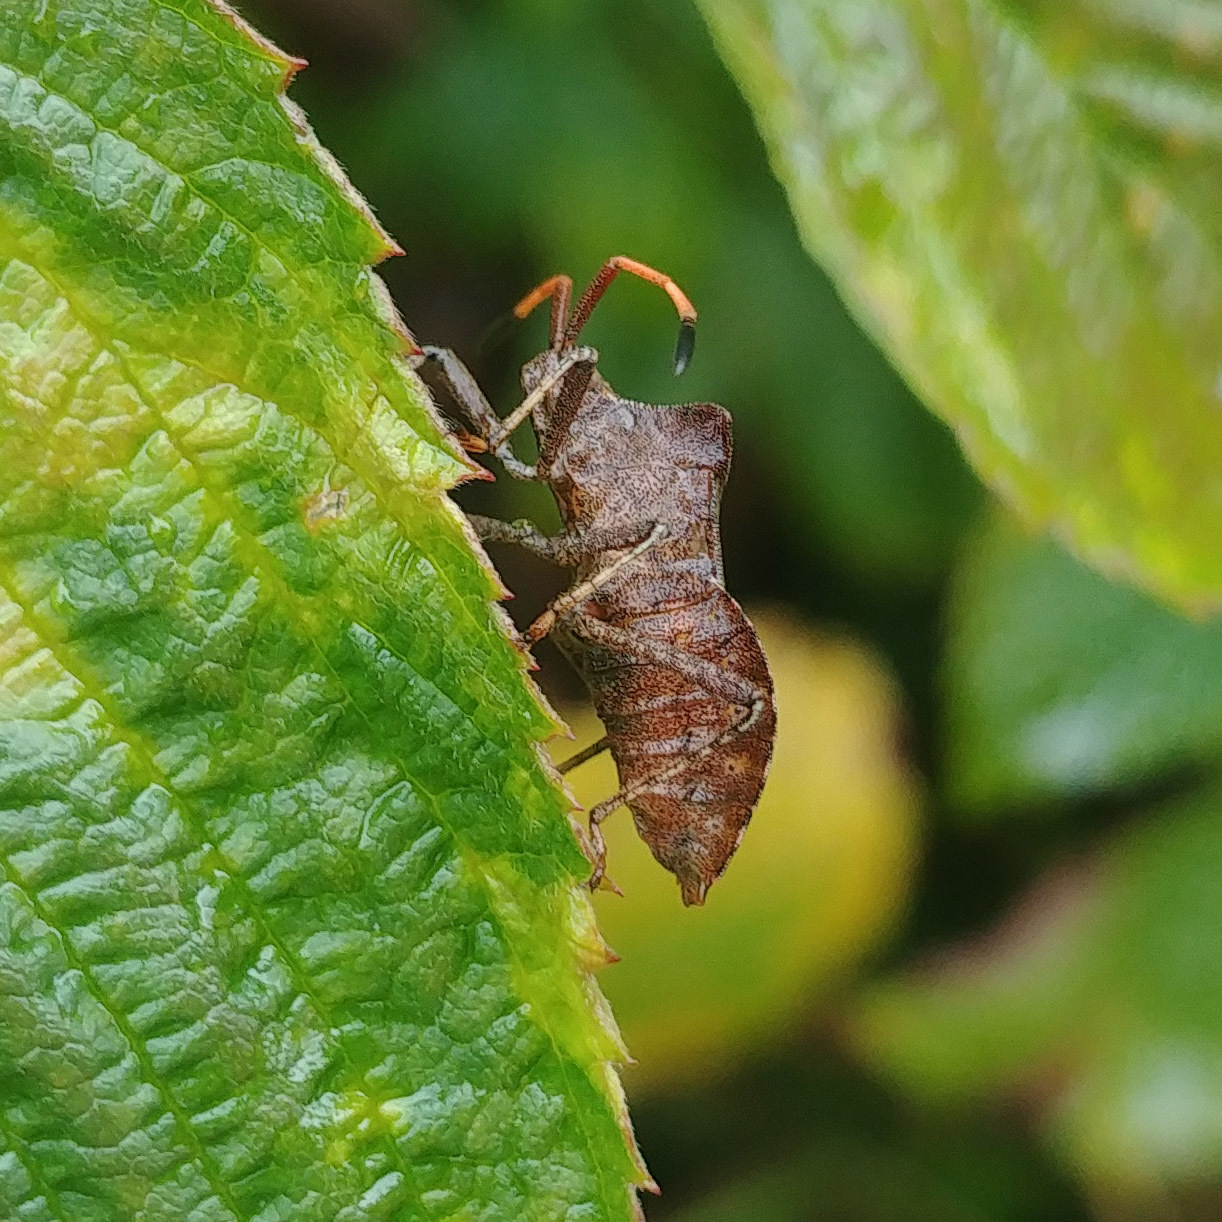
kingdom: Animalia
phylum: Arthropoda
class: Insecta
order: Hemiptera
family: Coreidae
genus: Coreus
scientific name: Coreus marginatus
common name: Dock bug
